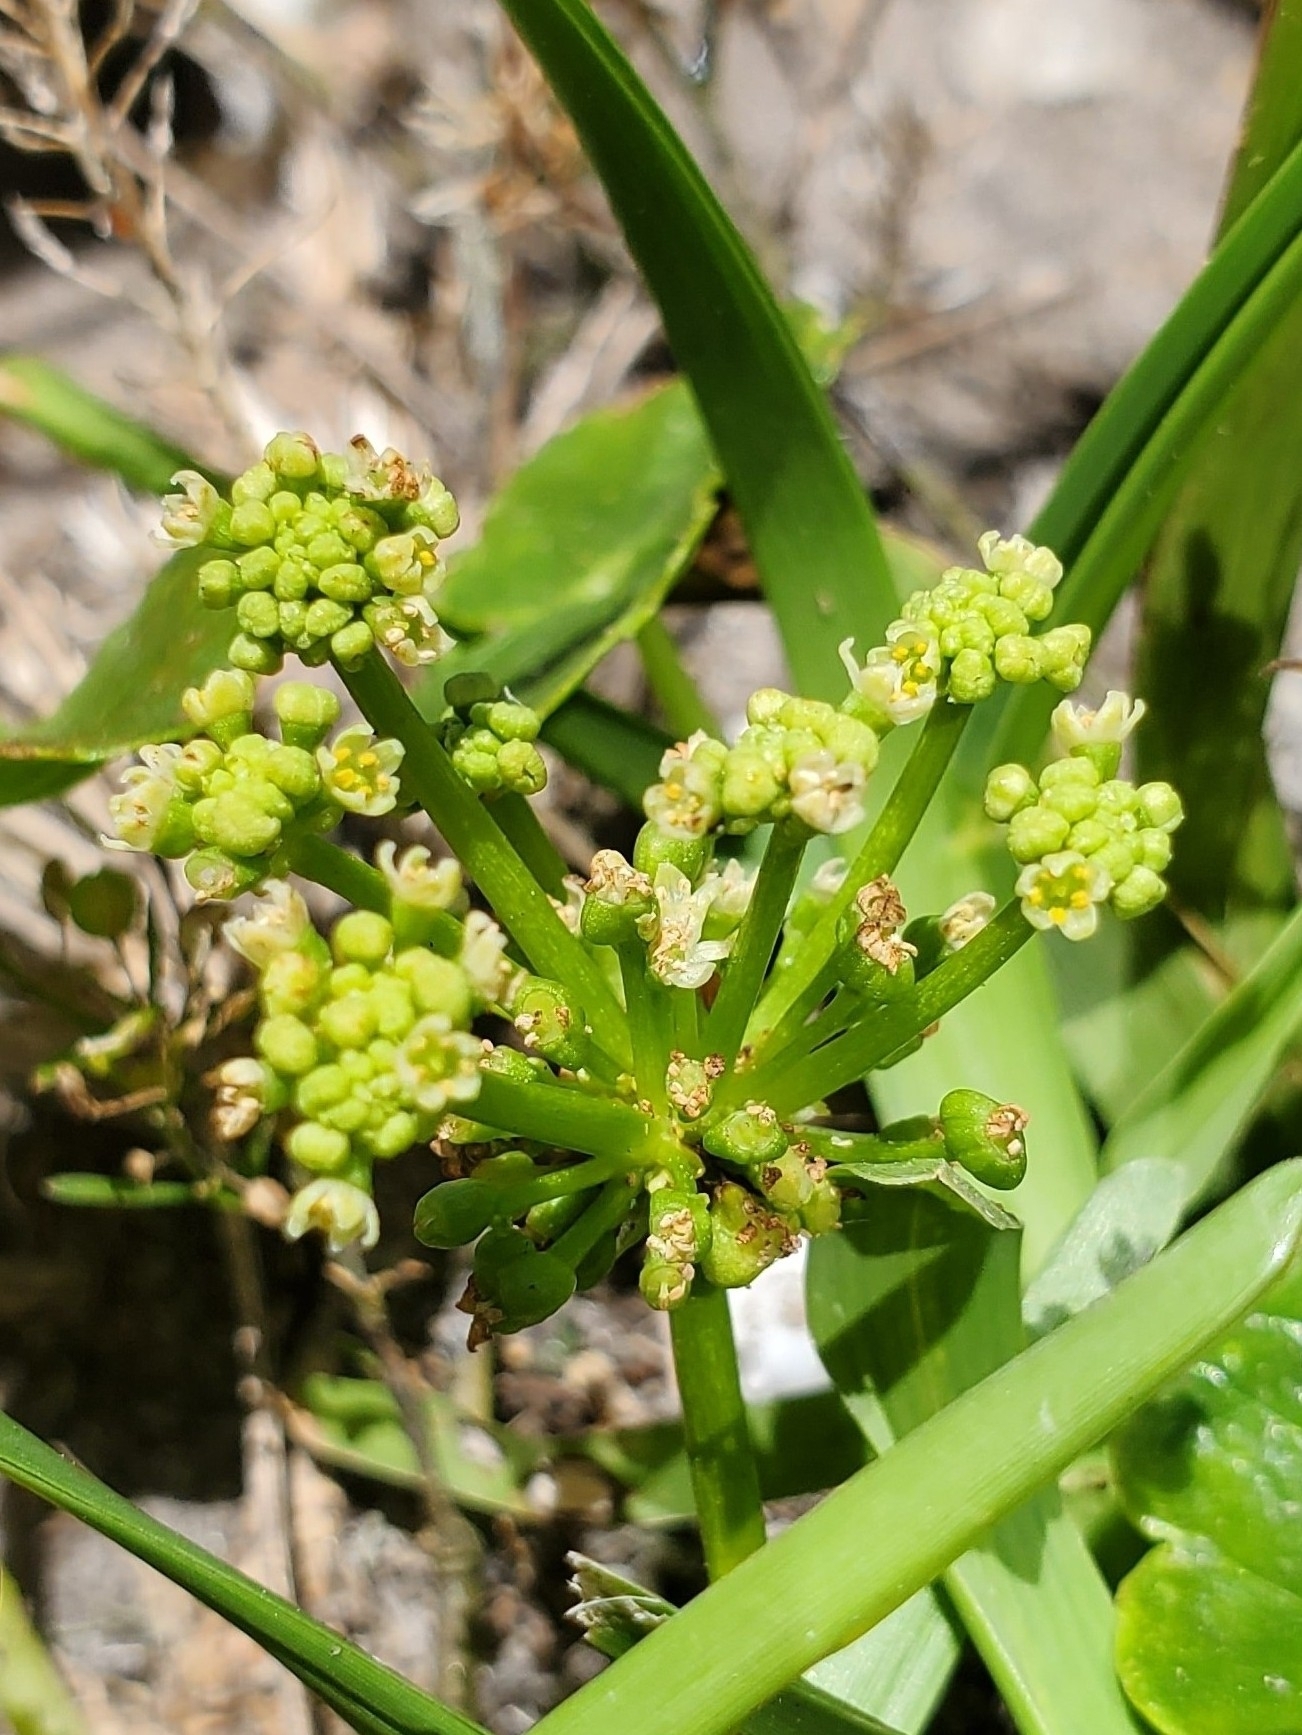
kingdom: Plantae
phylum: Tracheophyta
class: Magnoliopsida
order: Apiales
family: Araliaceae
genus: Hydrocotyle
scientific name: Hydrocotyle bonariensis
